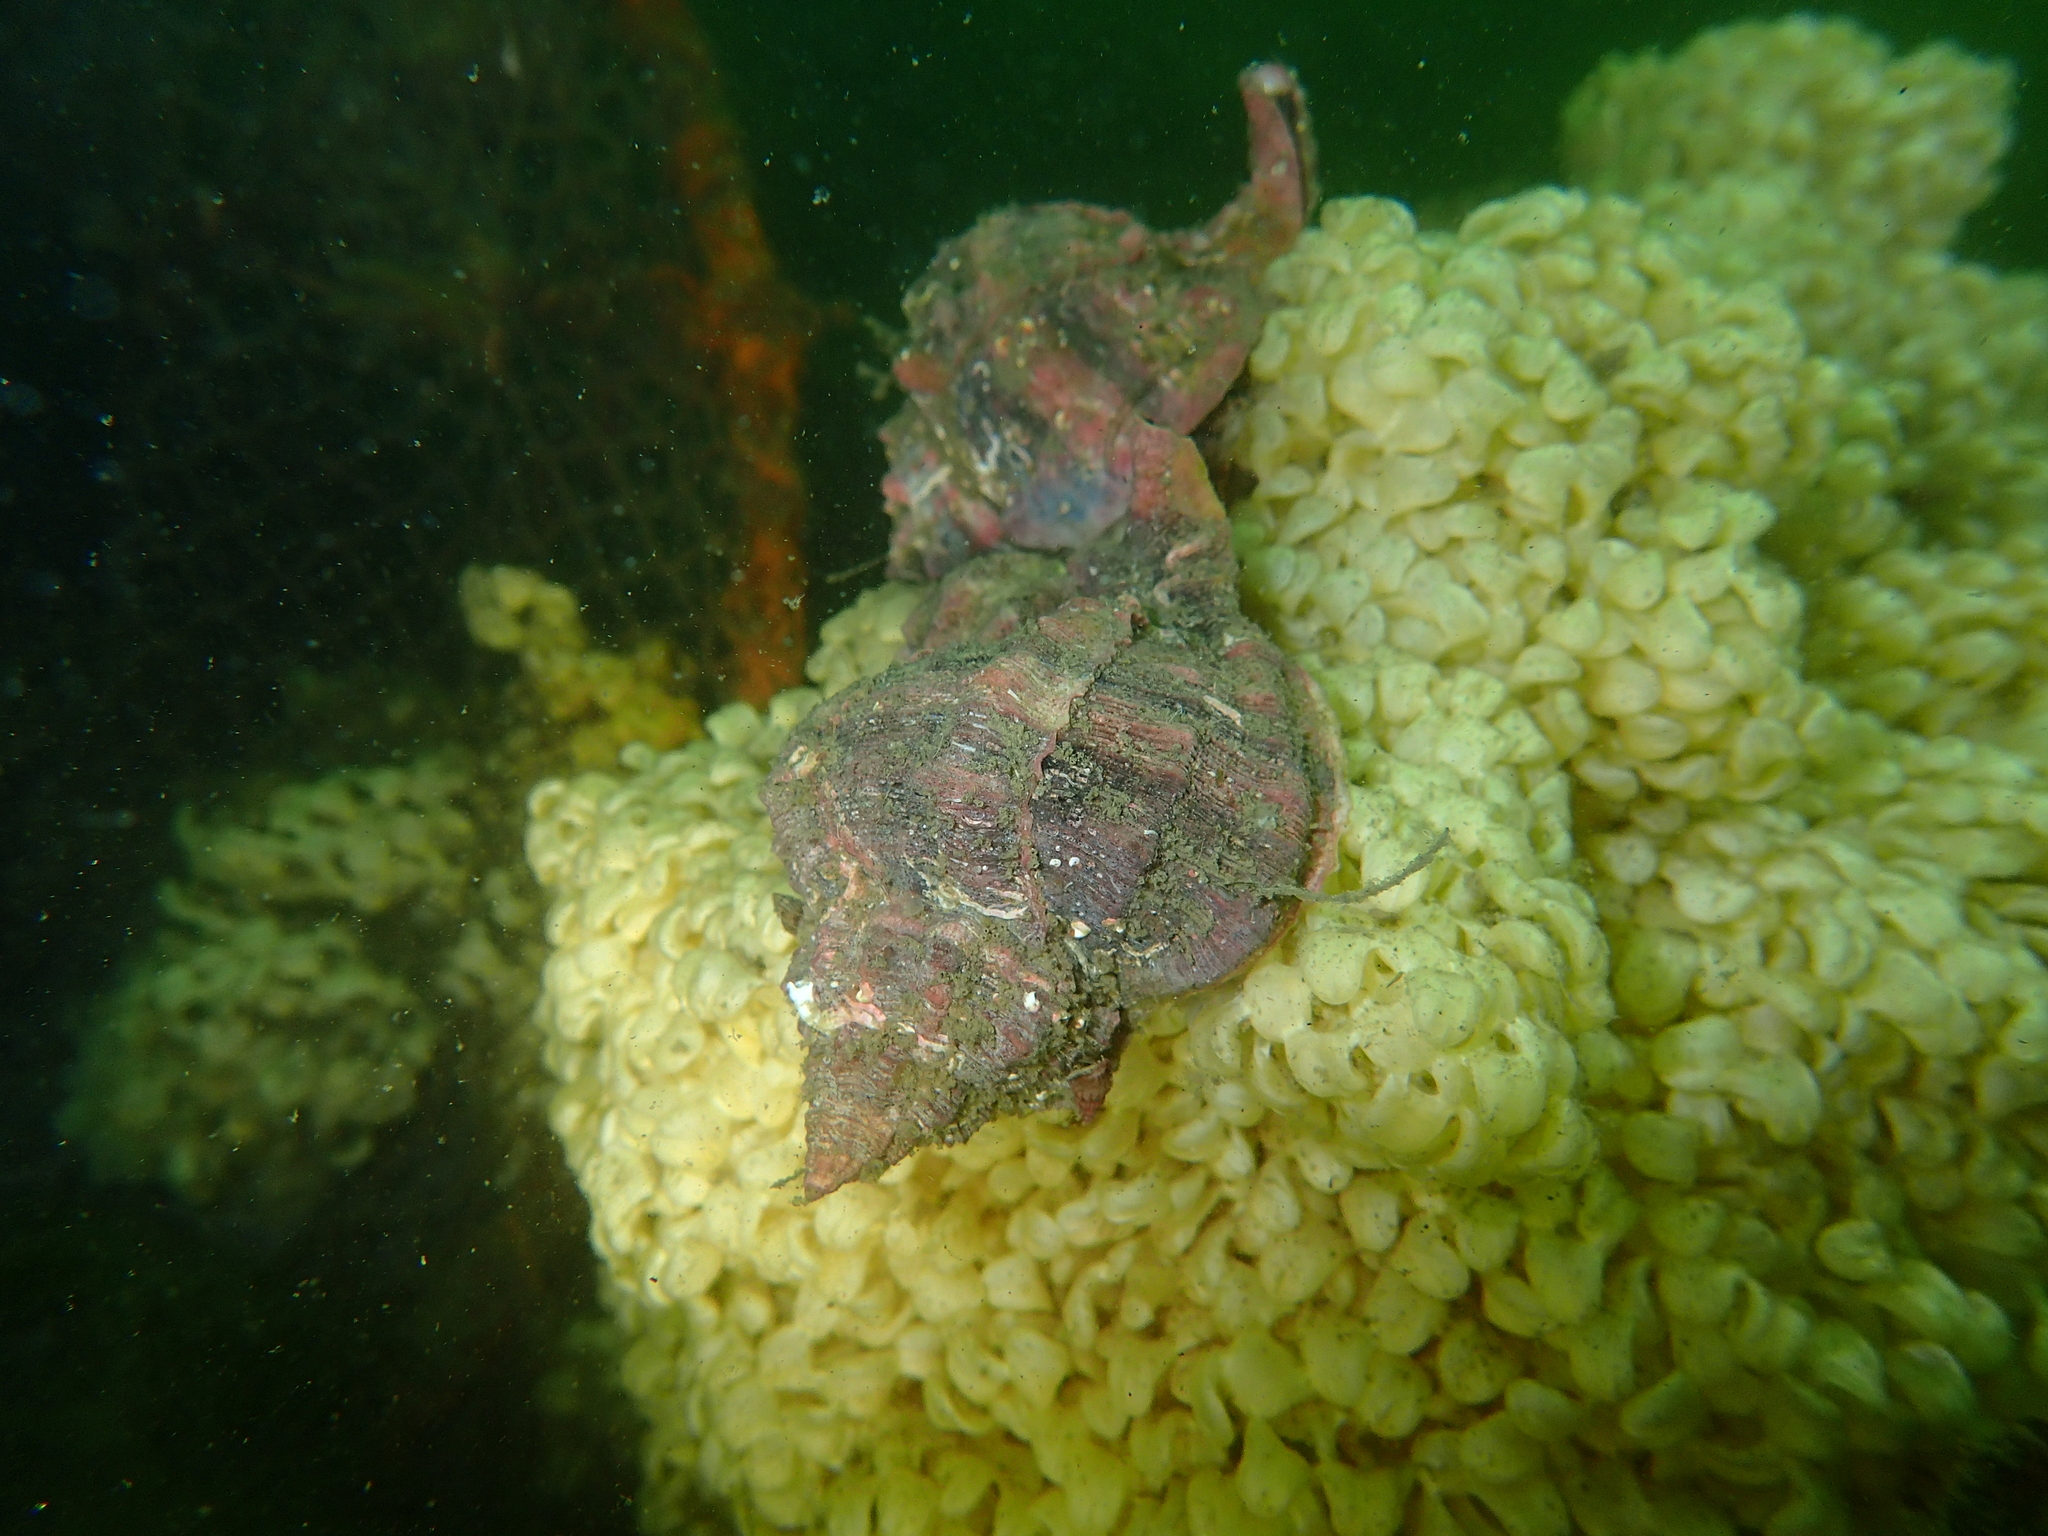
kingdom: Animalia
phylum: Mollusca
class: Gastropoda
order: Neogastropoda
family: Muricidae
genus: Hexaplex
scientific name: Hexaplex trunculus
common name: Banded dye-murex
